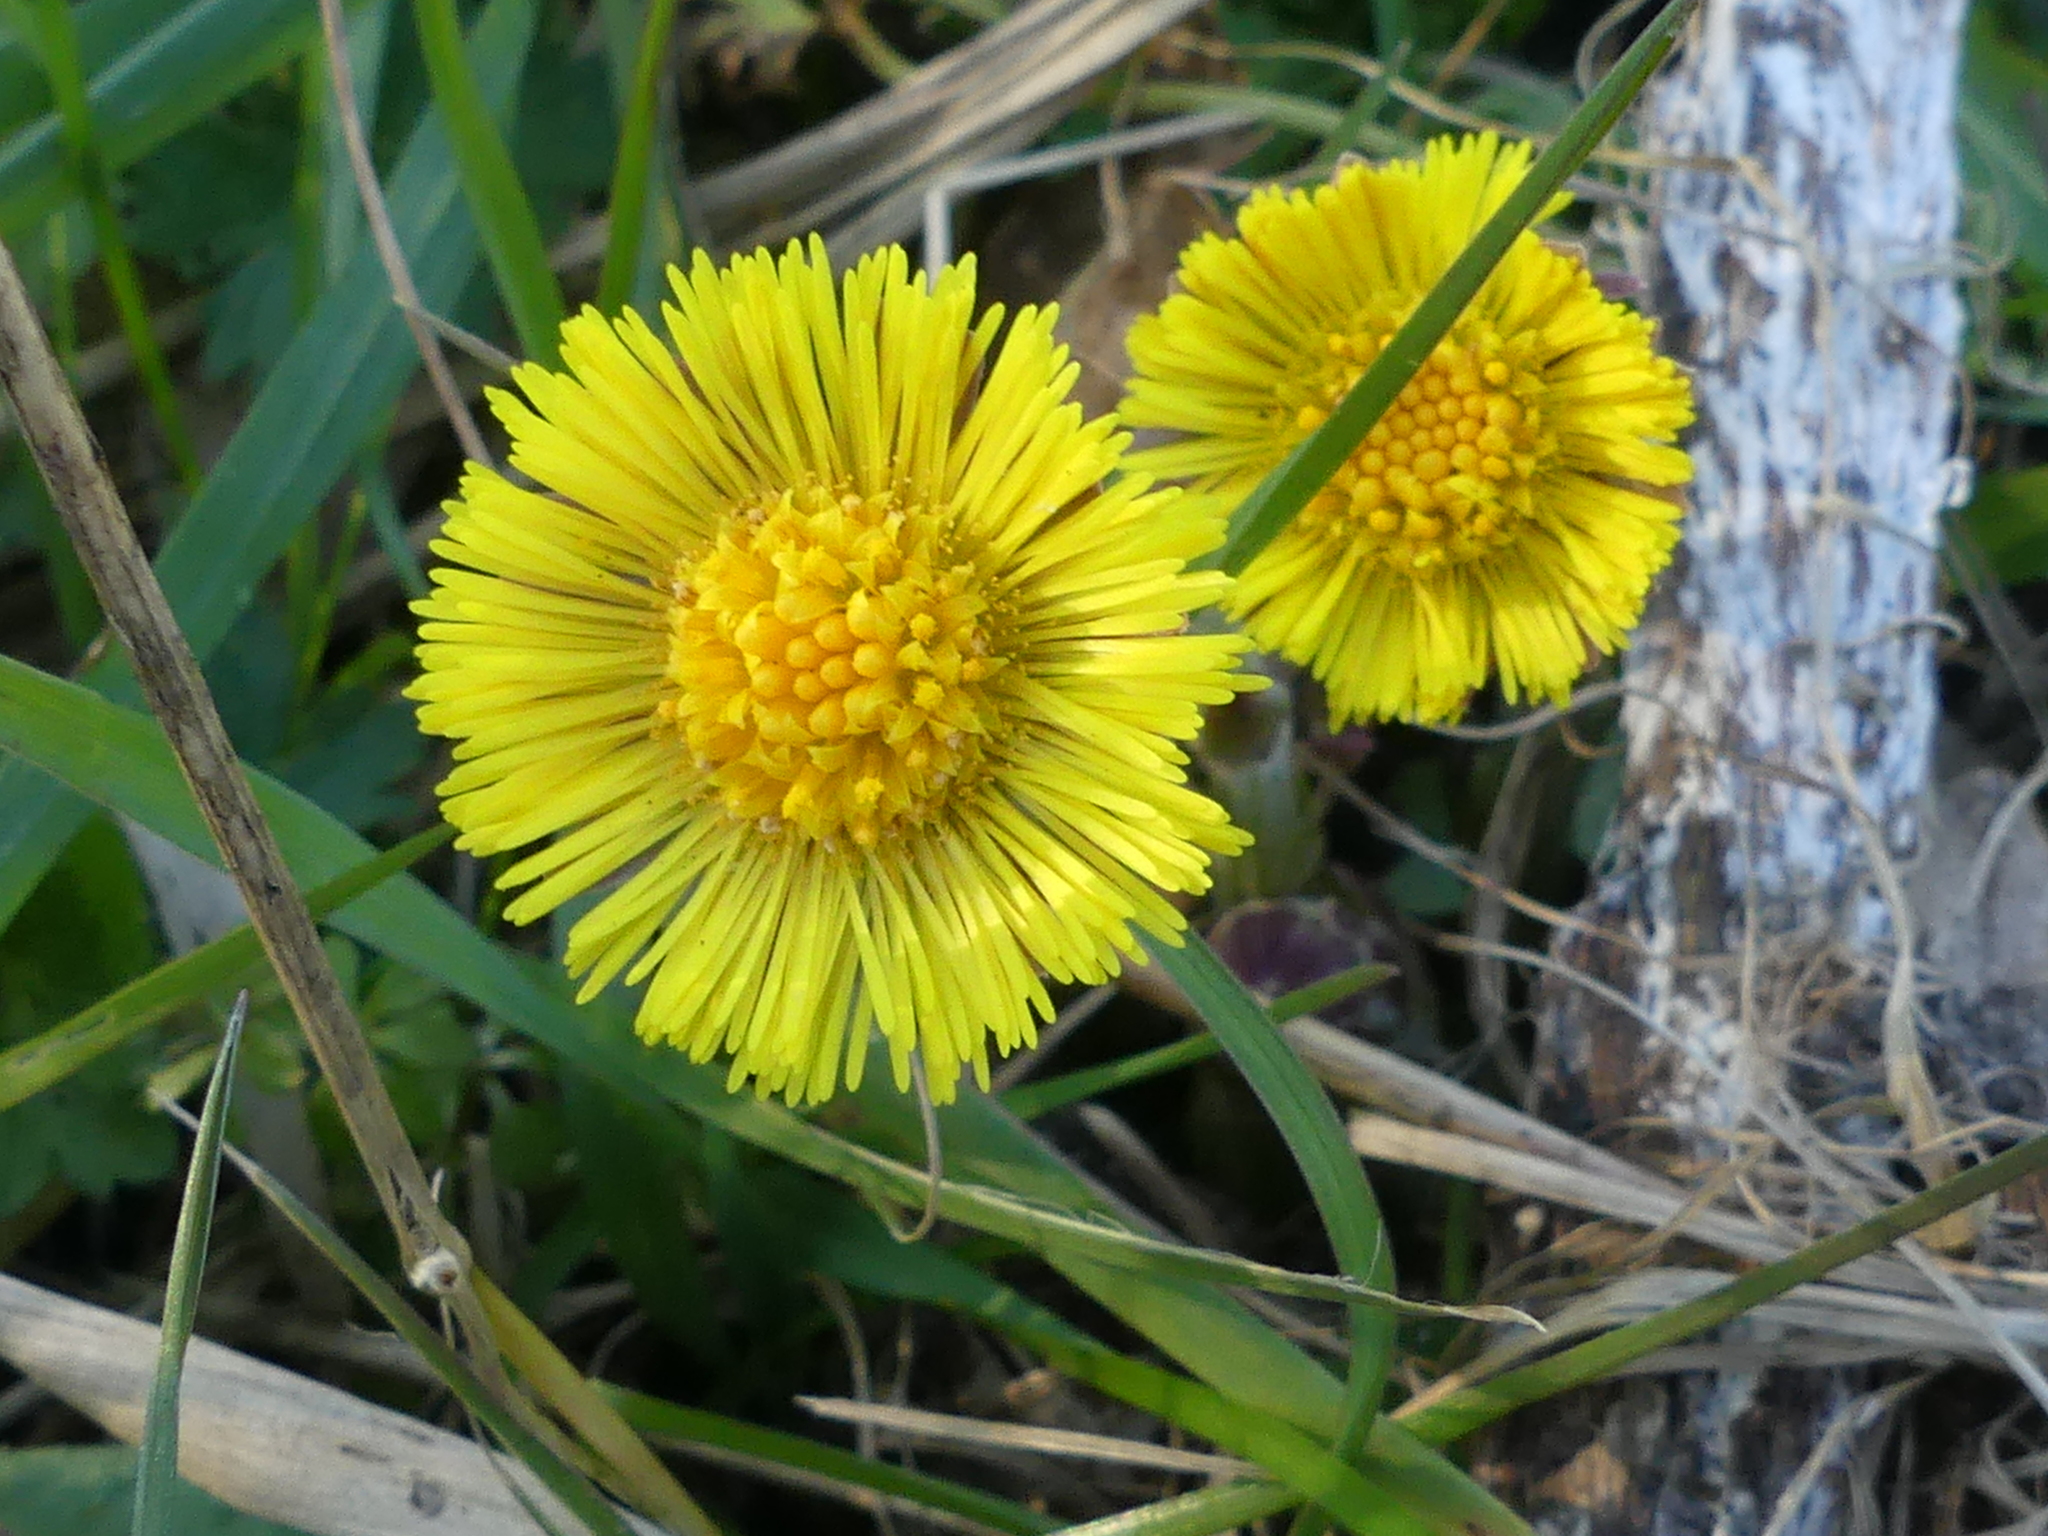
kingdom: Plantae
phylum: Tracheophyta
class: Magnoliopsida
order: Asterales
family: Asteraceae
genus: Tussilago
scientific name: Tussilago farfara
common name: Coltsfoot
